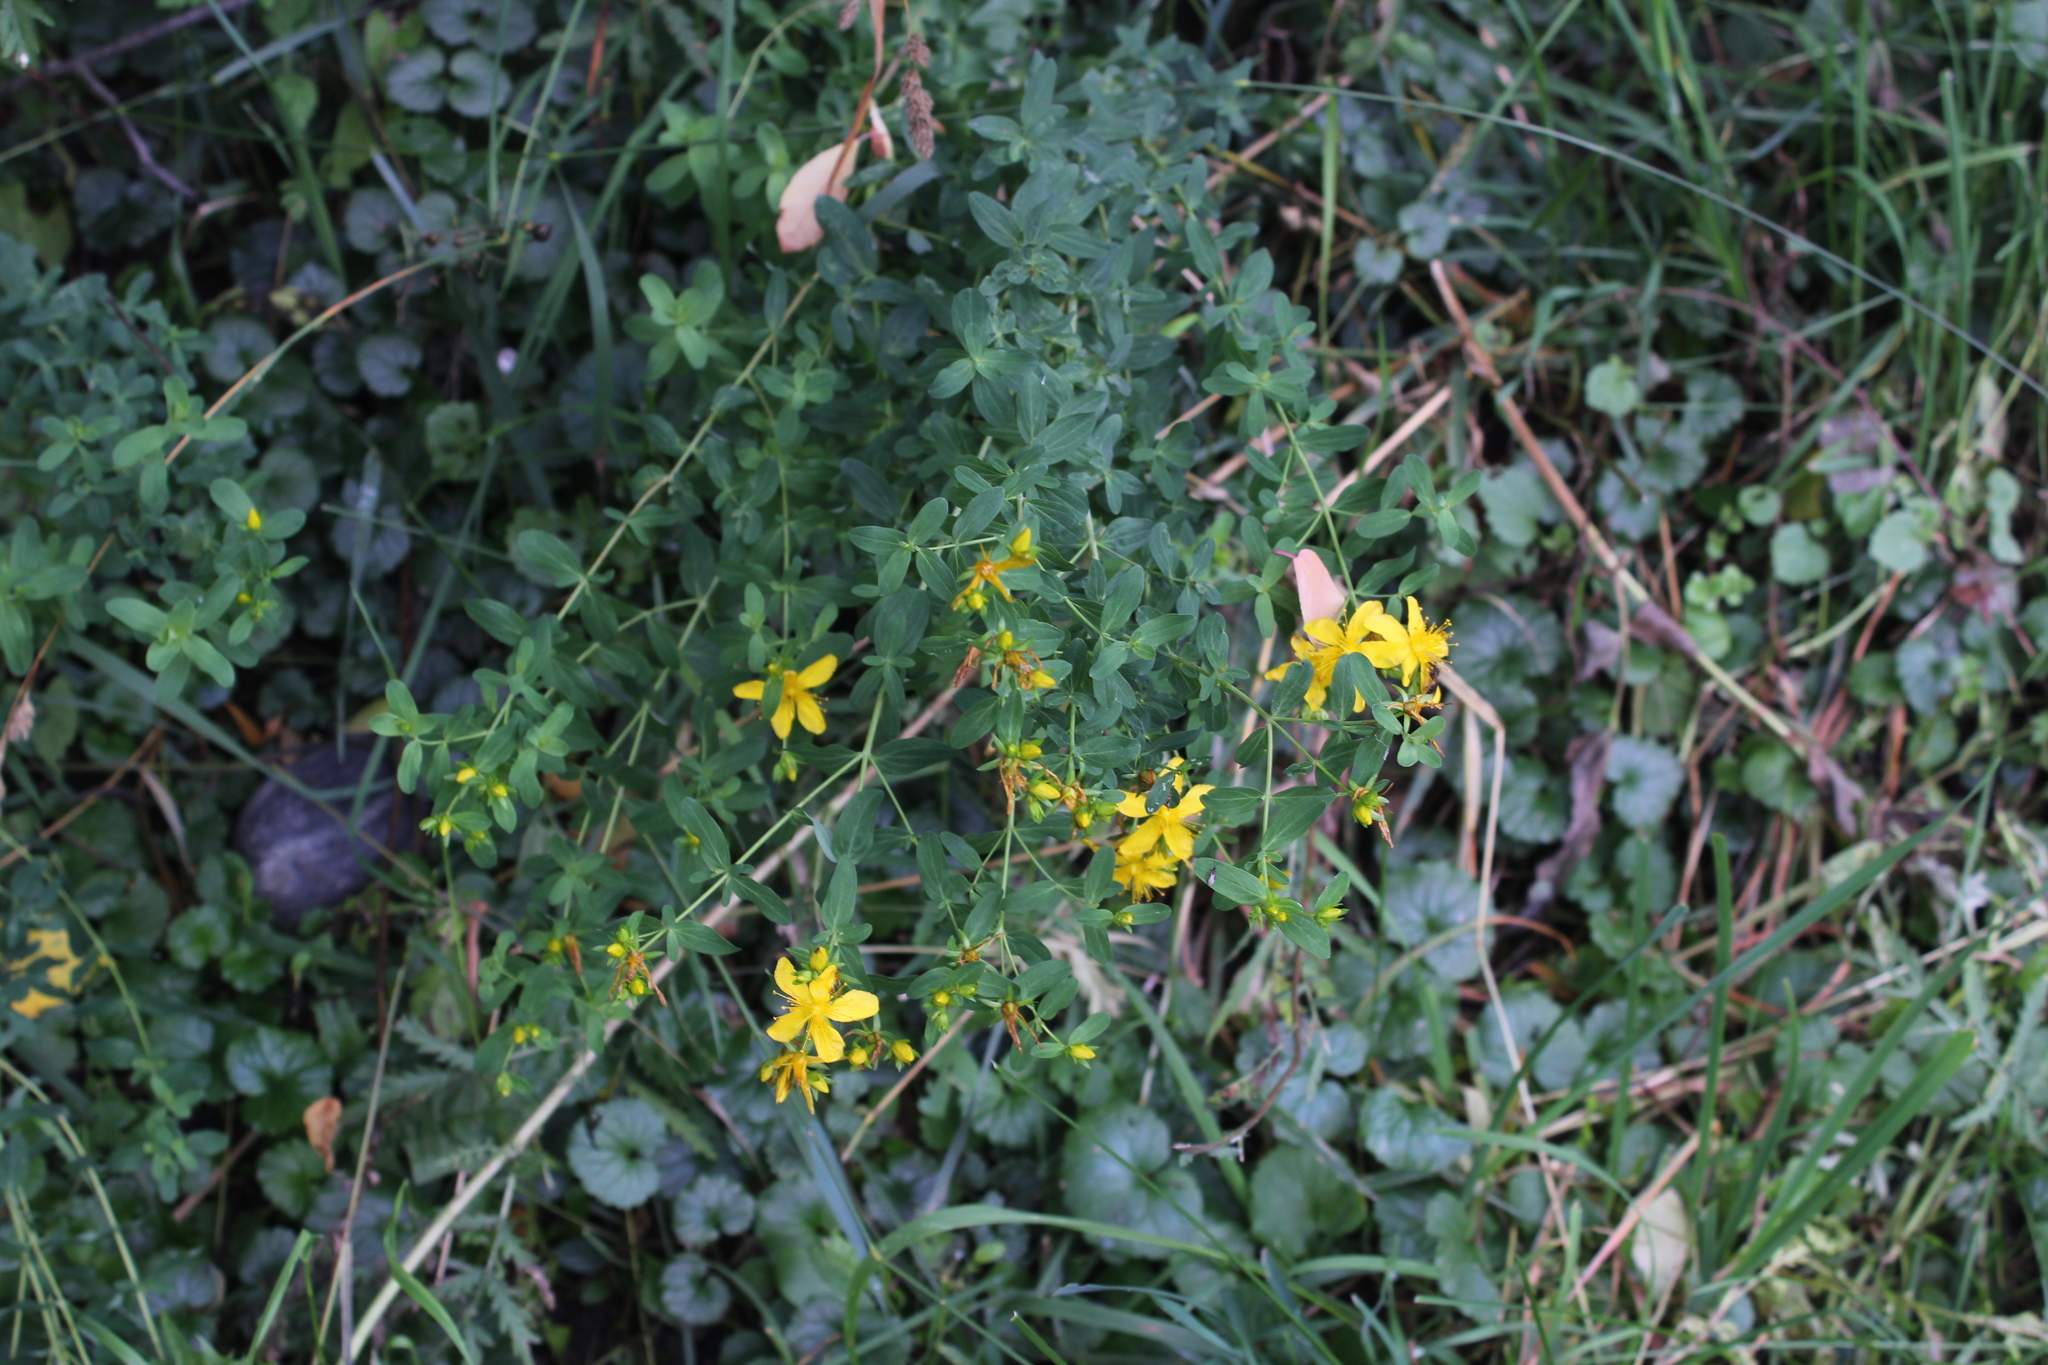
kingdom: Plantae
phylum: Tracheophyta
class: Magnoliopsida
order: Malpighiales
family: Hypericaceae
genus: Hypericum
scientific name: Hypericum perforatum
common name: Common st. johnswort
